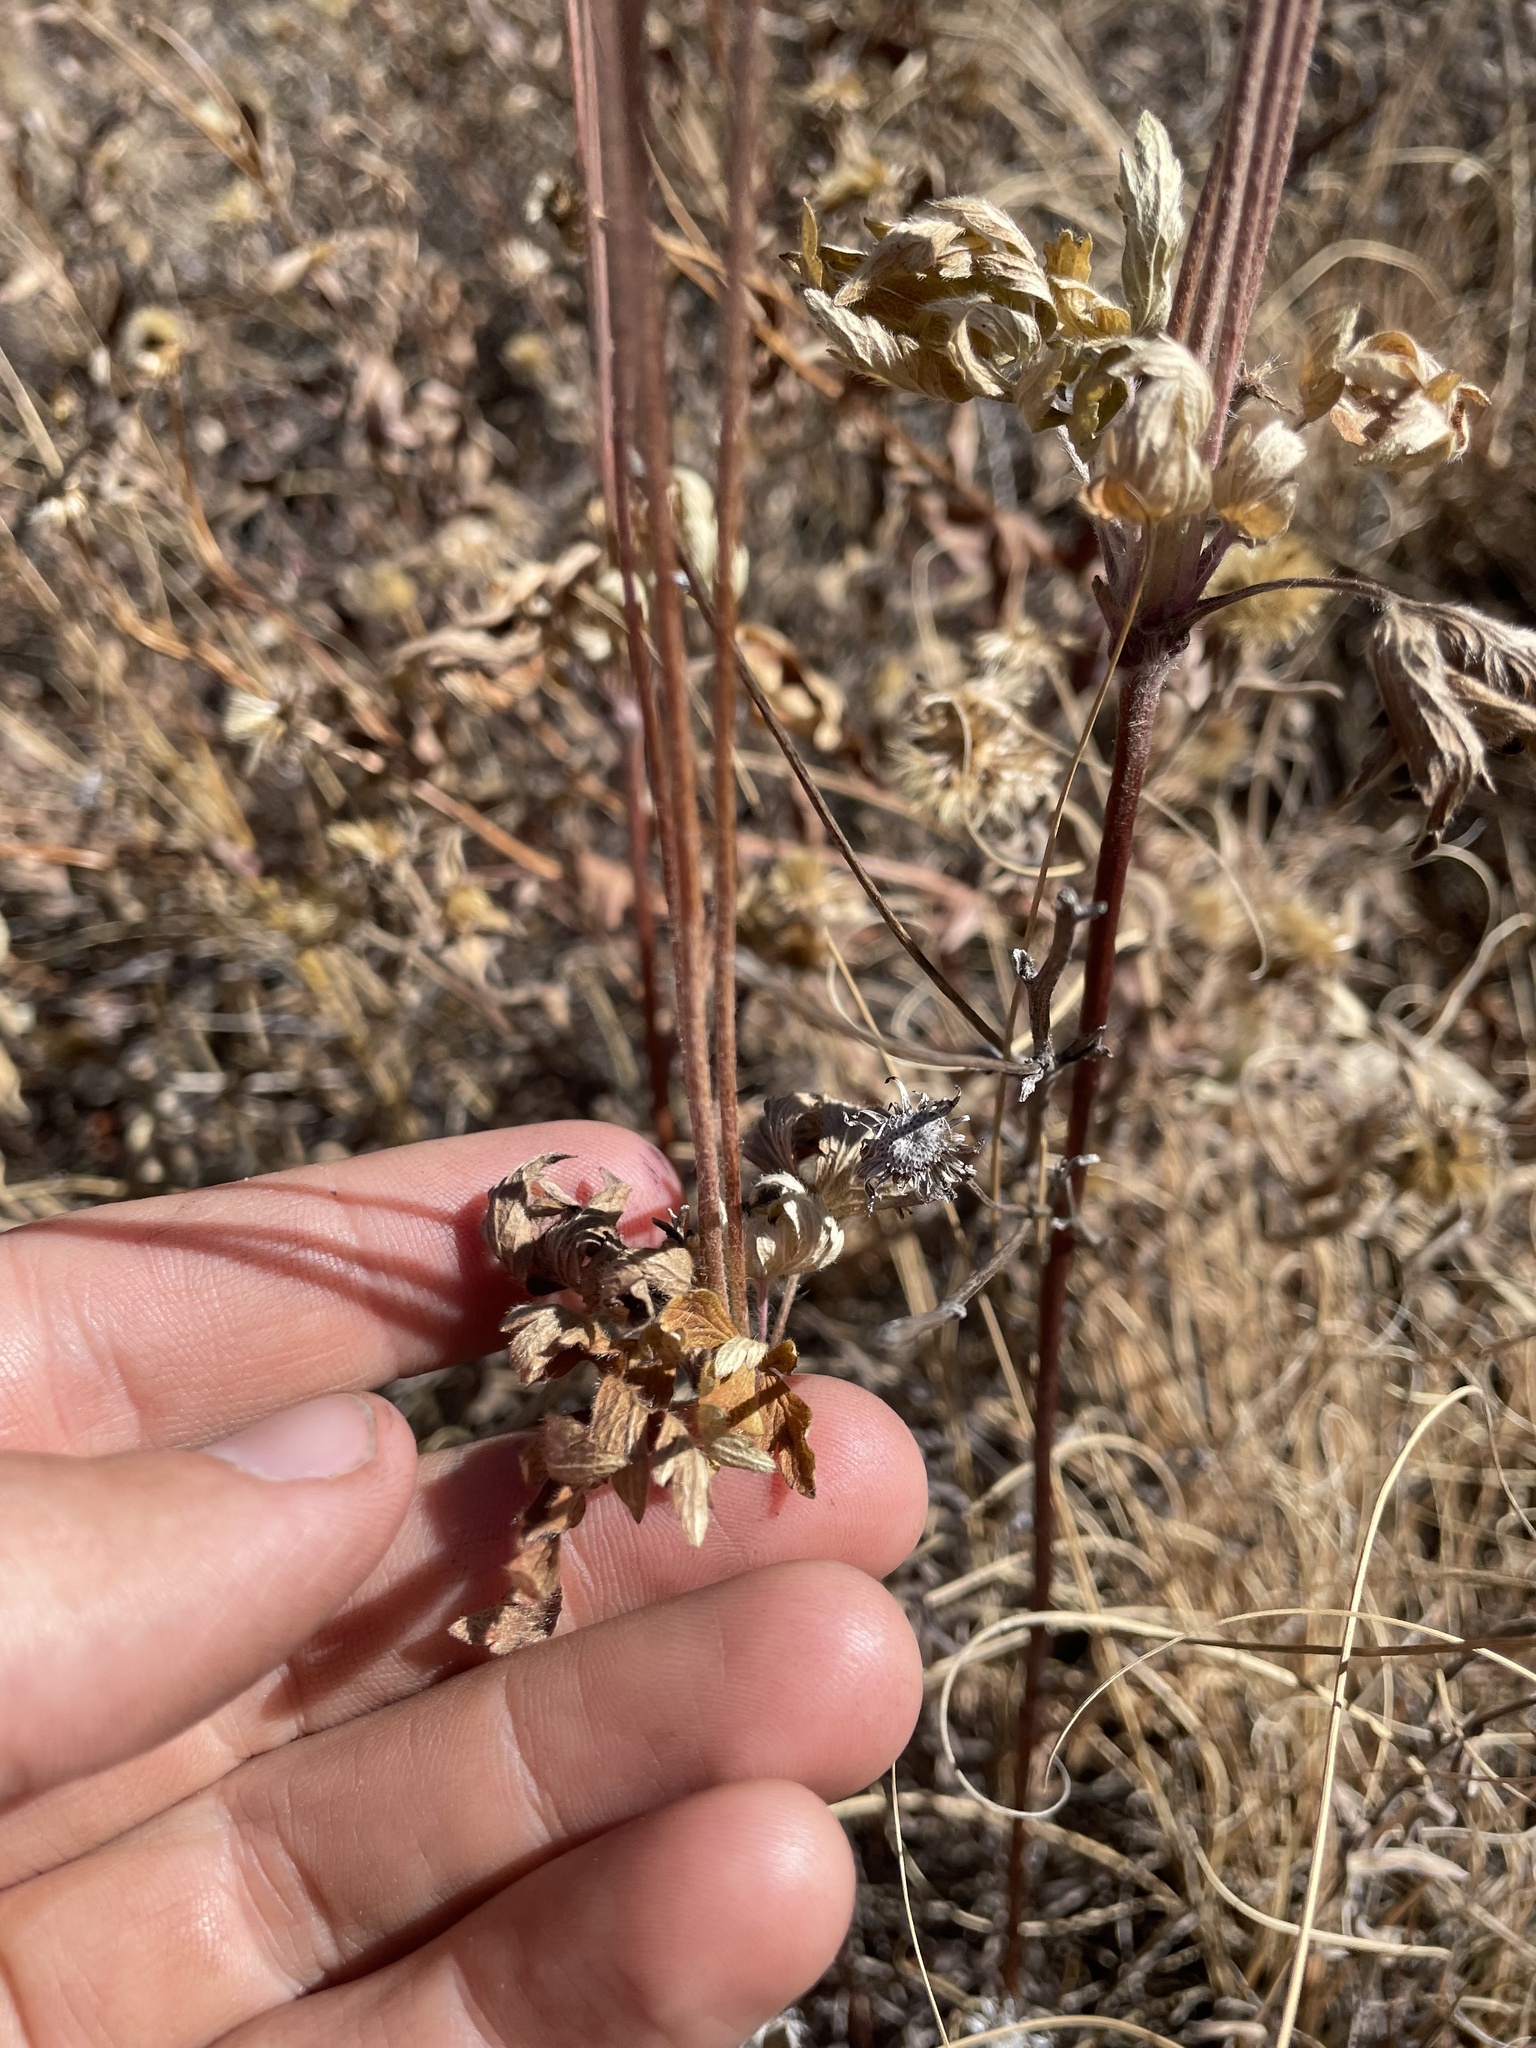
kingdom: Plantae
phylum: Tracheophyta
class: Magnoliopsida
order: Ranunculales
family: Ranunculaceae
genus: Anemone
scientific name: Anemone cylindrica
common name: Candle anemone
